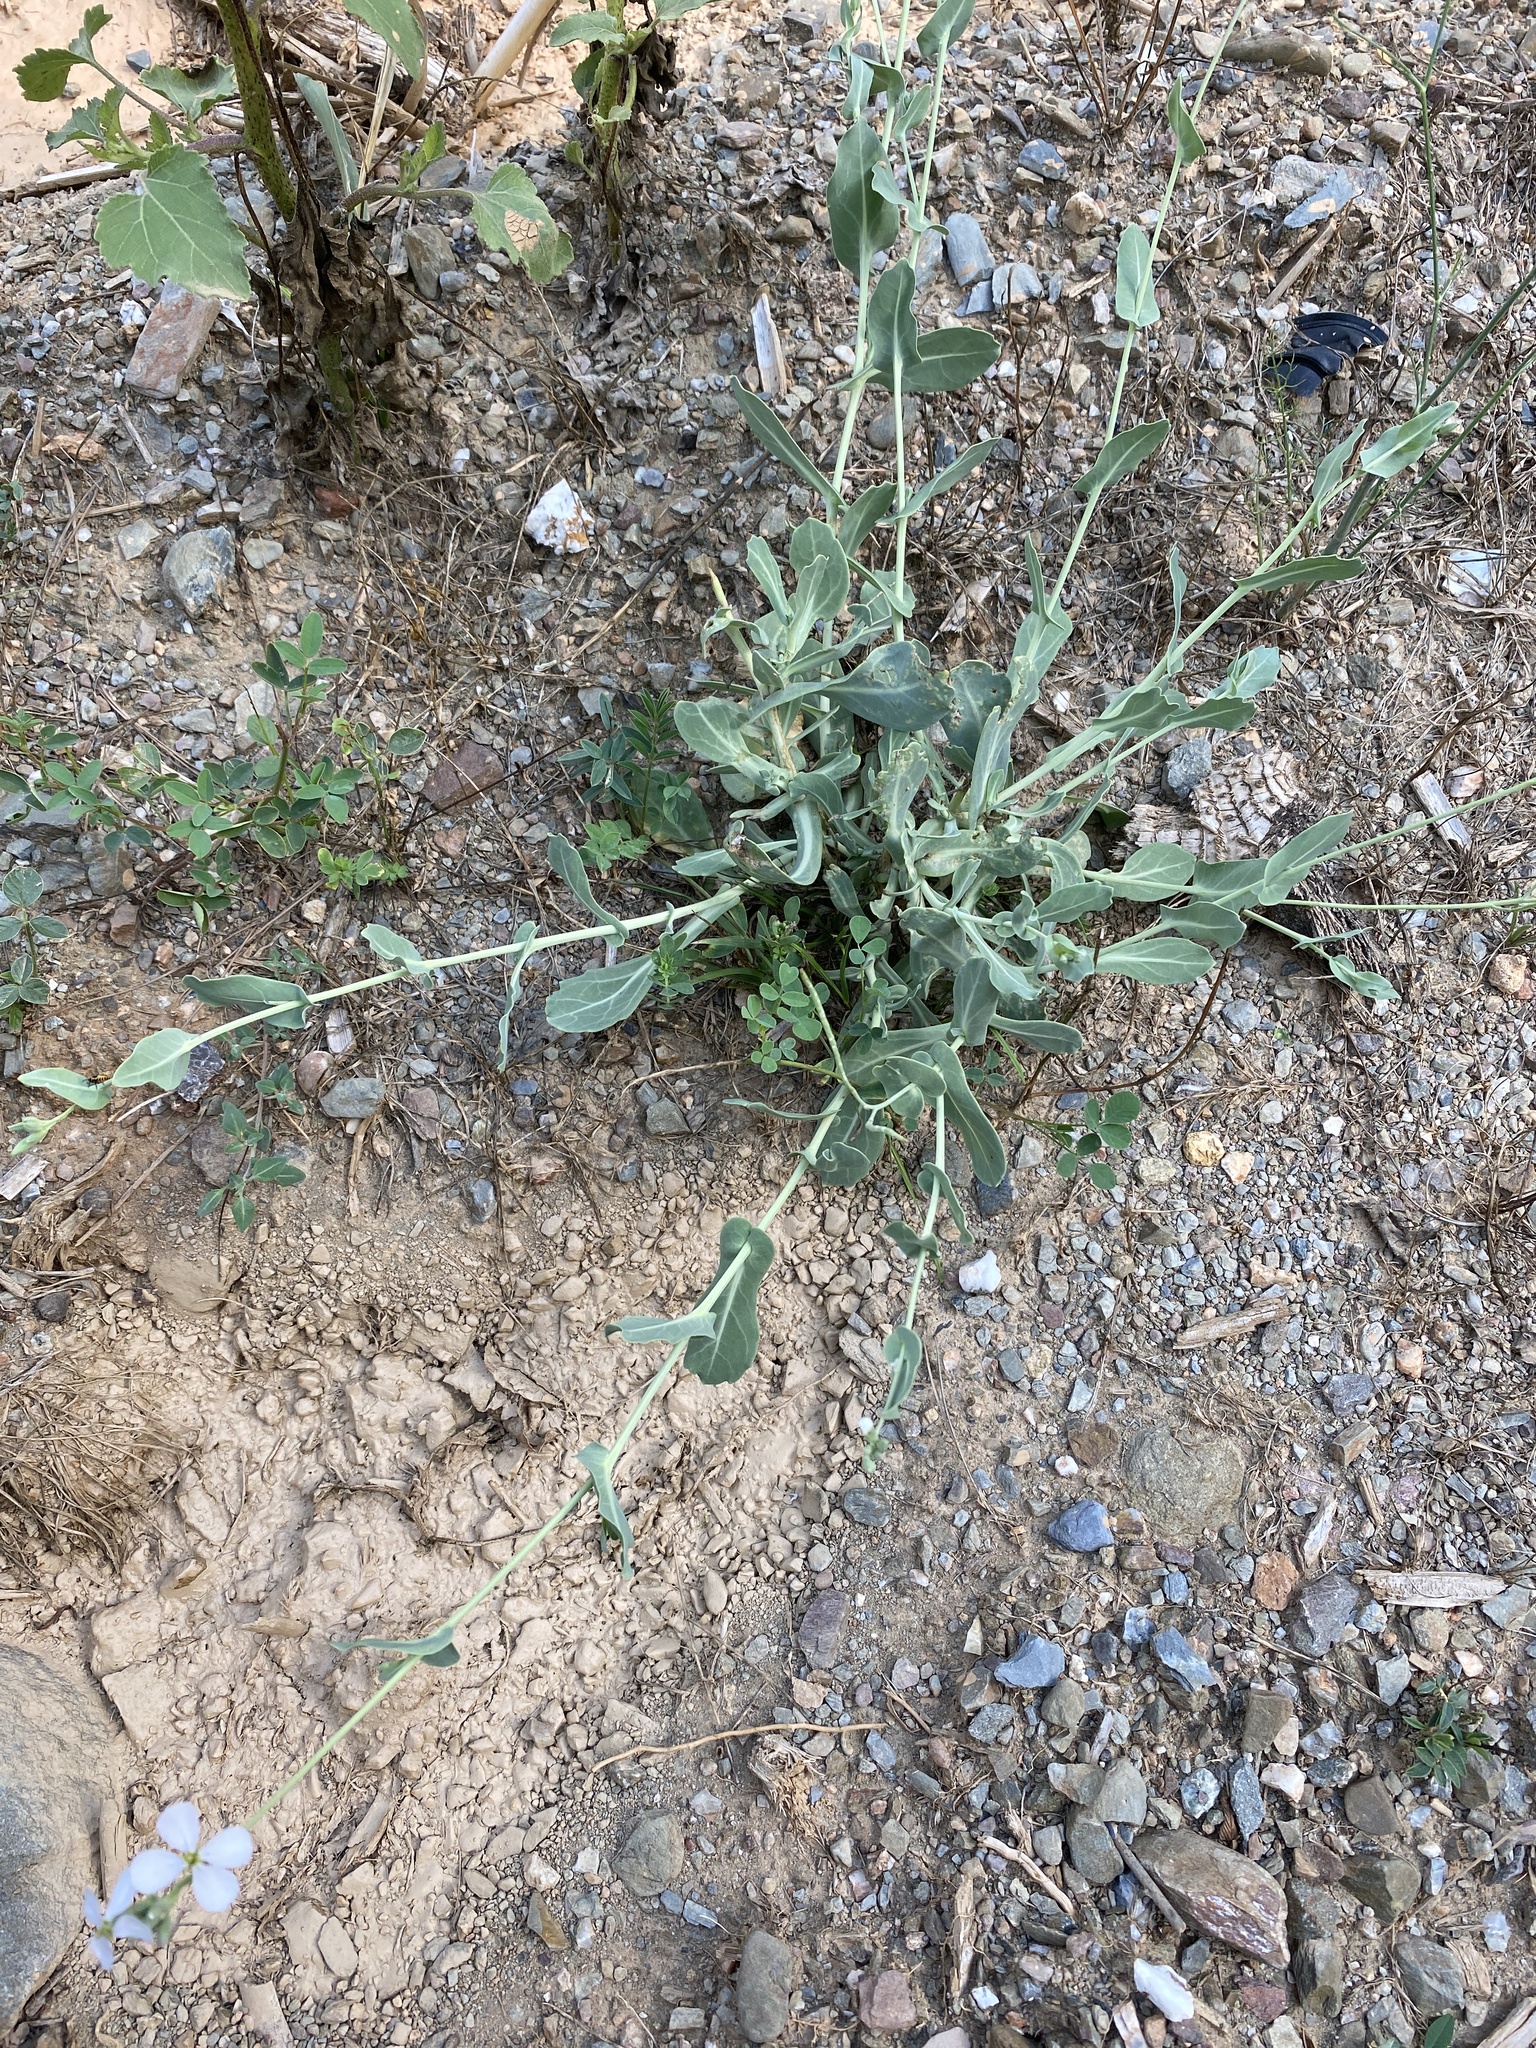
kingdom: Plantae
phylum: Tracheophyta
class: Magnoliopsida
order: Brassicales
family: Brassicaceae
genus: Moricandia
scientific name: Moricandia arvensis
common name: Purple mistress
